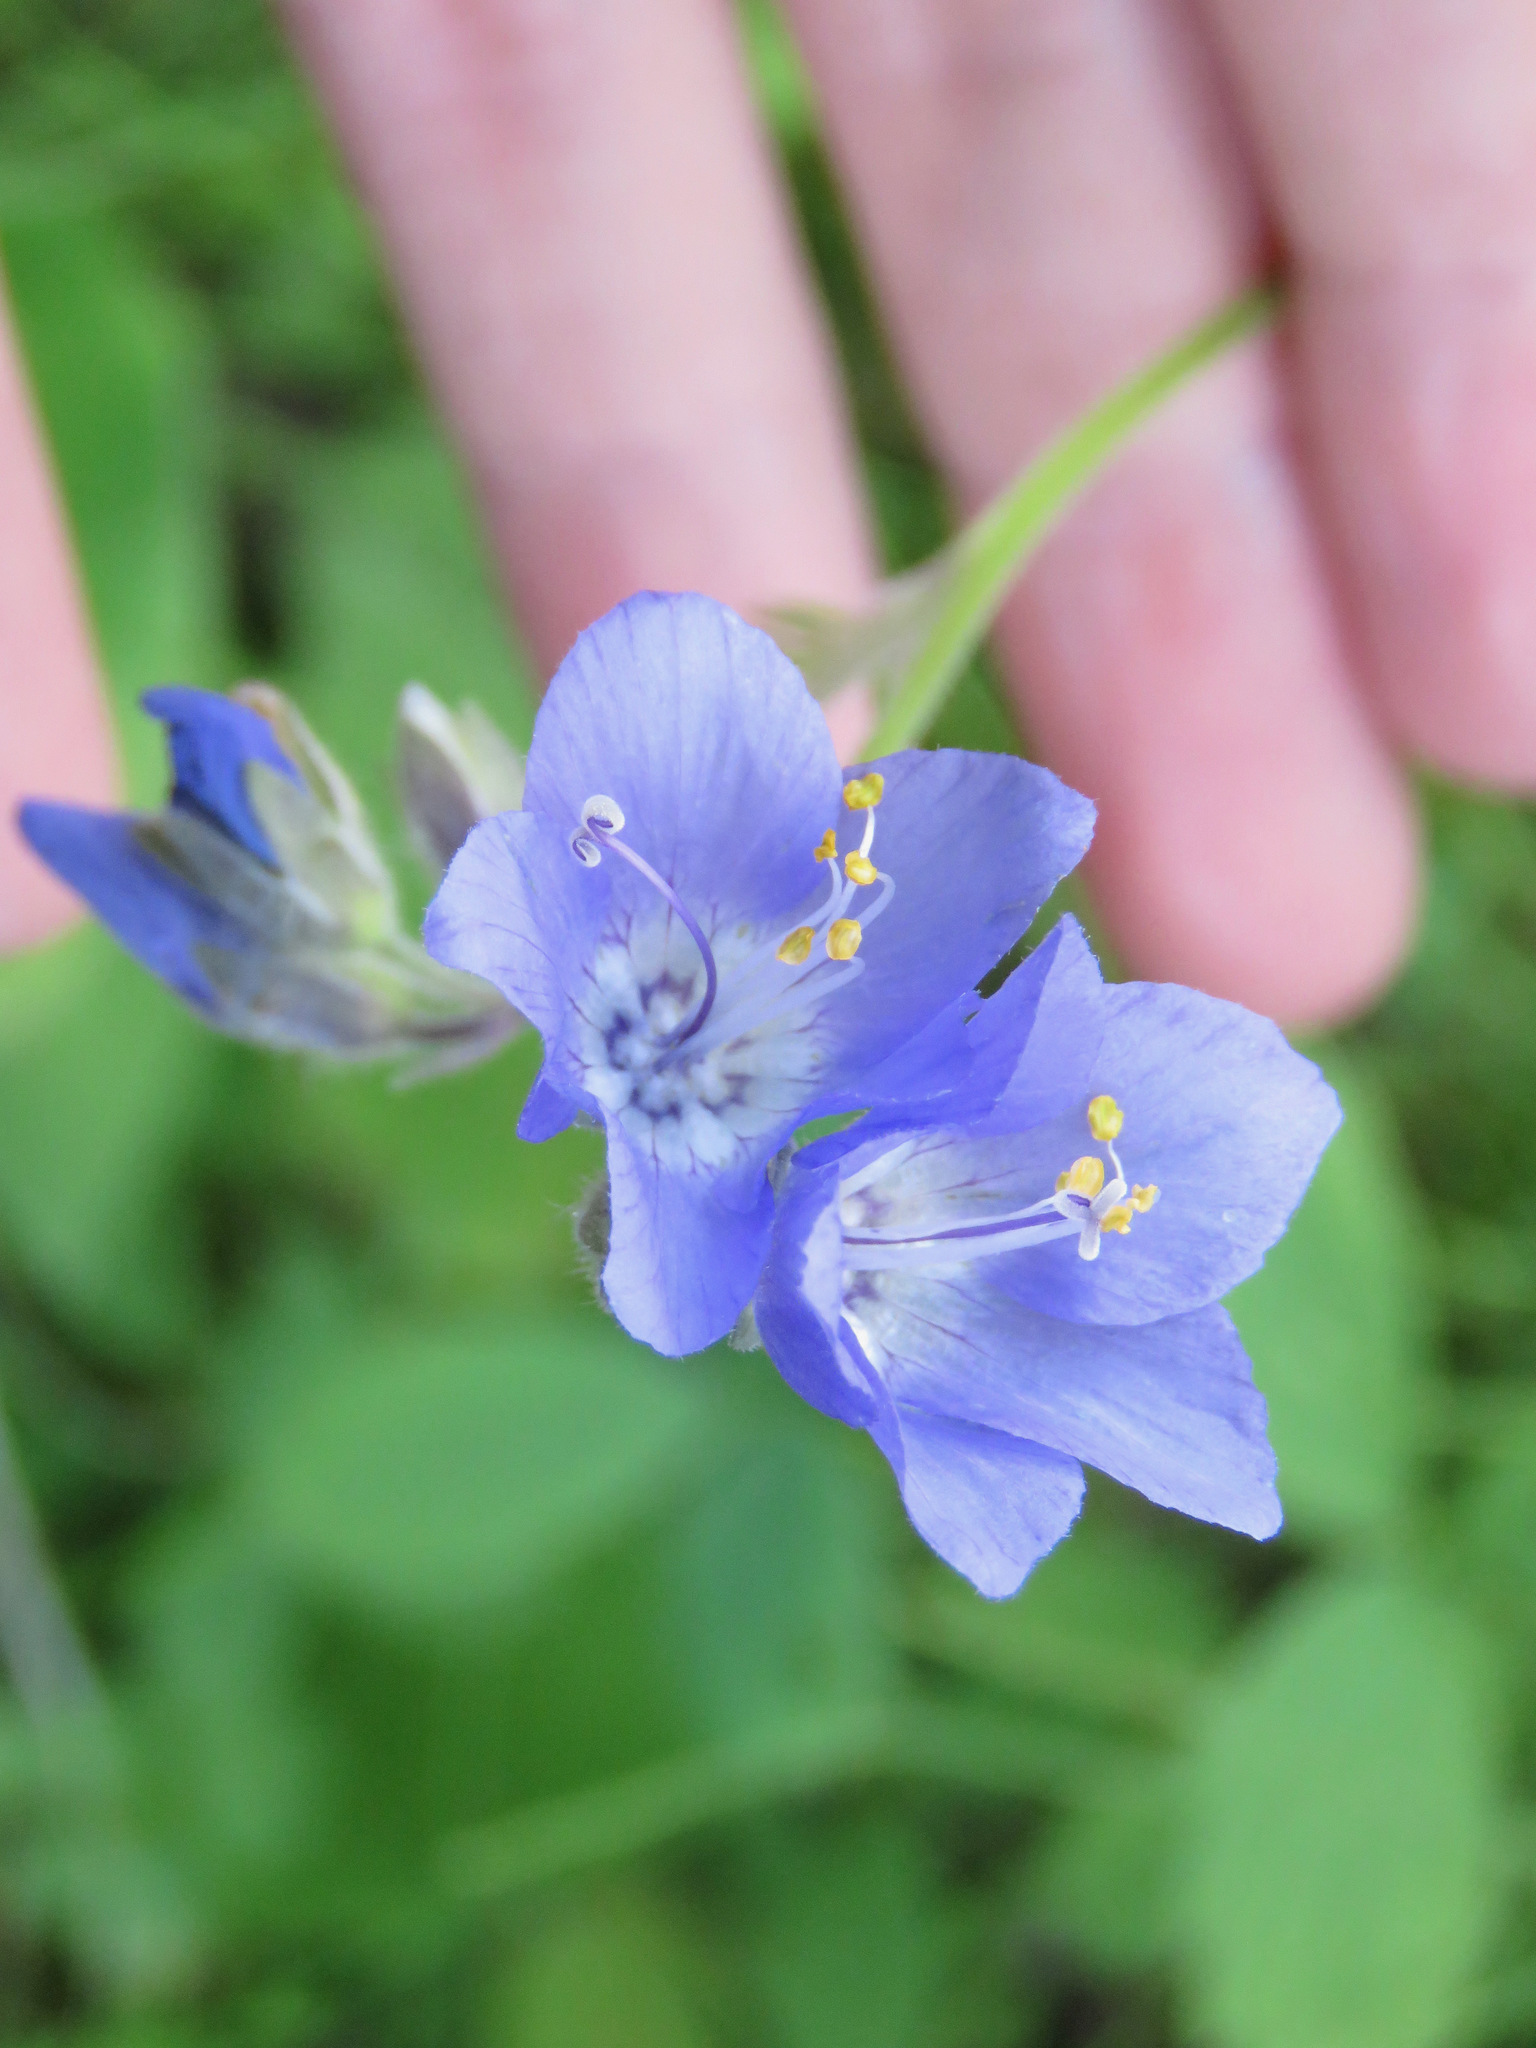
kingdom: Plantae
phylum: Tracheophyta
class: Magnoliopsida
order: Ericales
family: Polemoniaceae
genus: Polemonium
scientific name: Polemonium acutiflorum
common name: Tall jacob's-ladder
